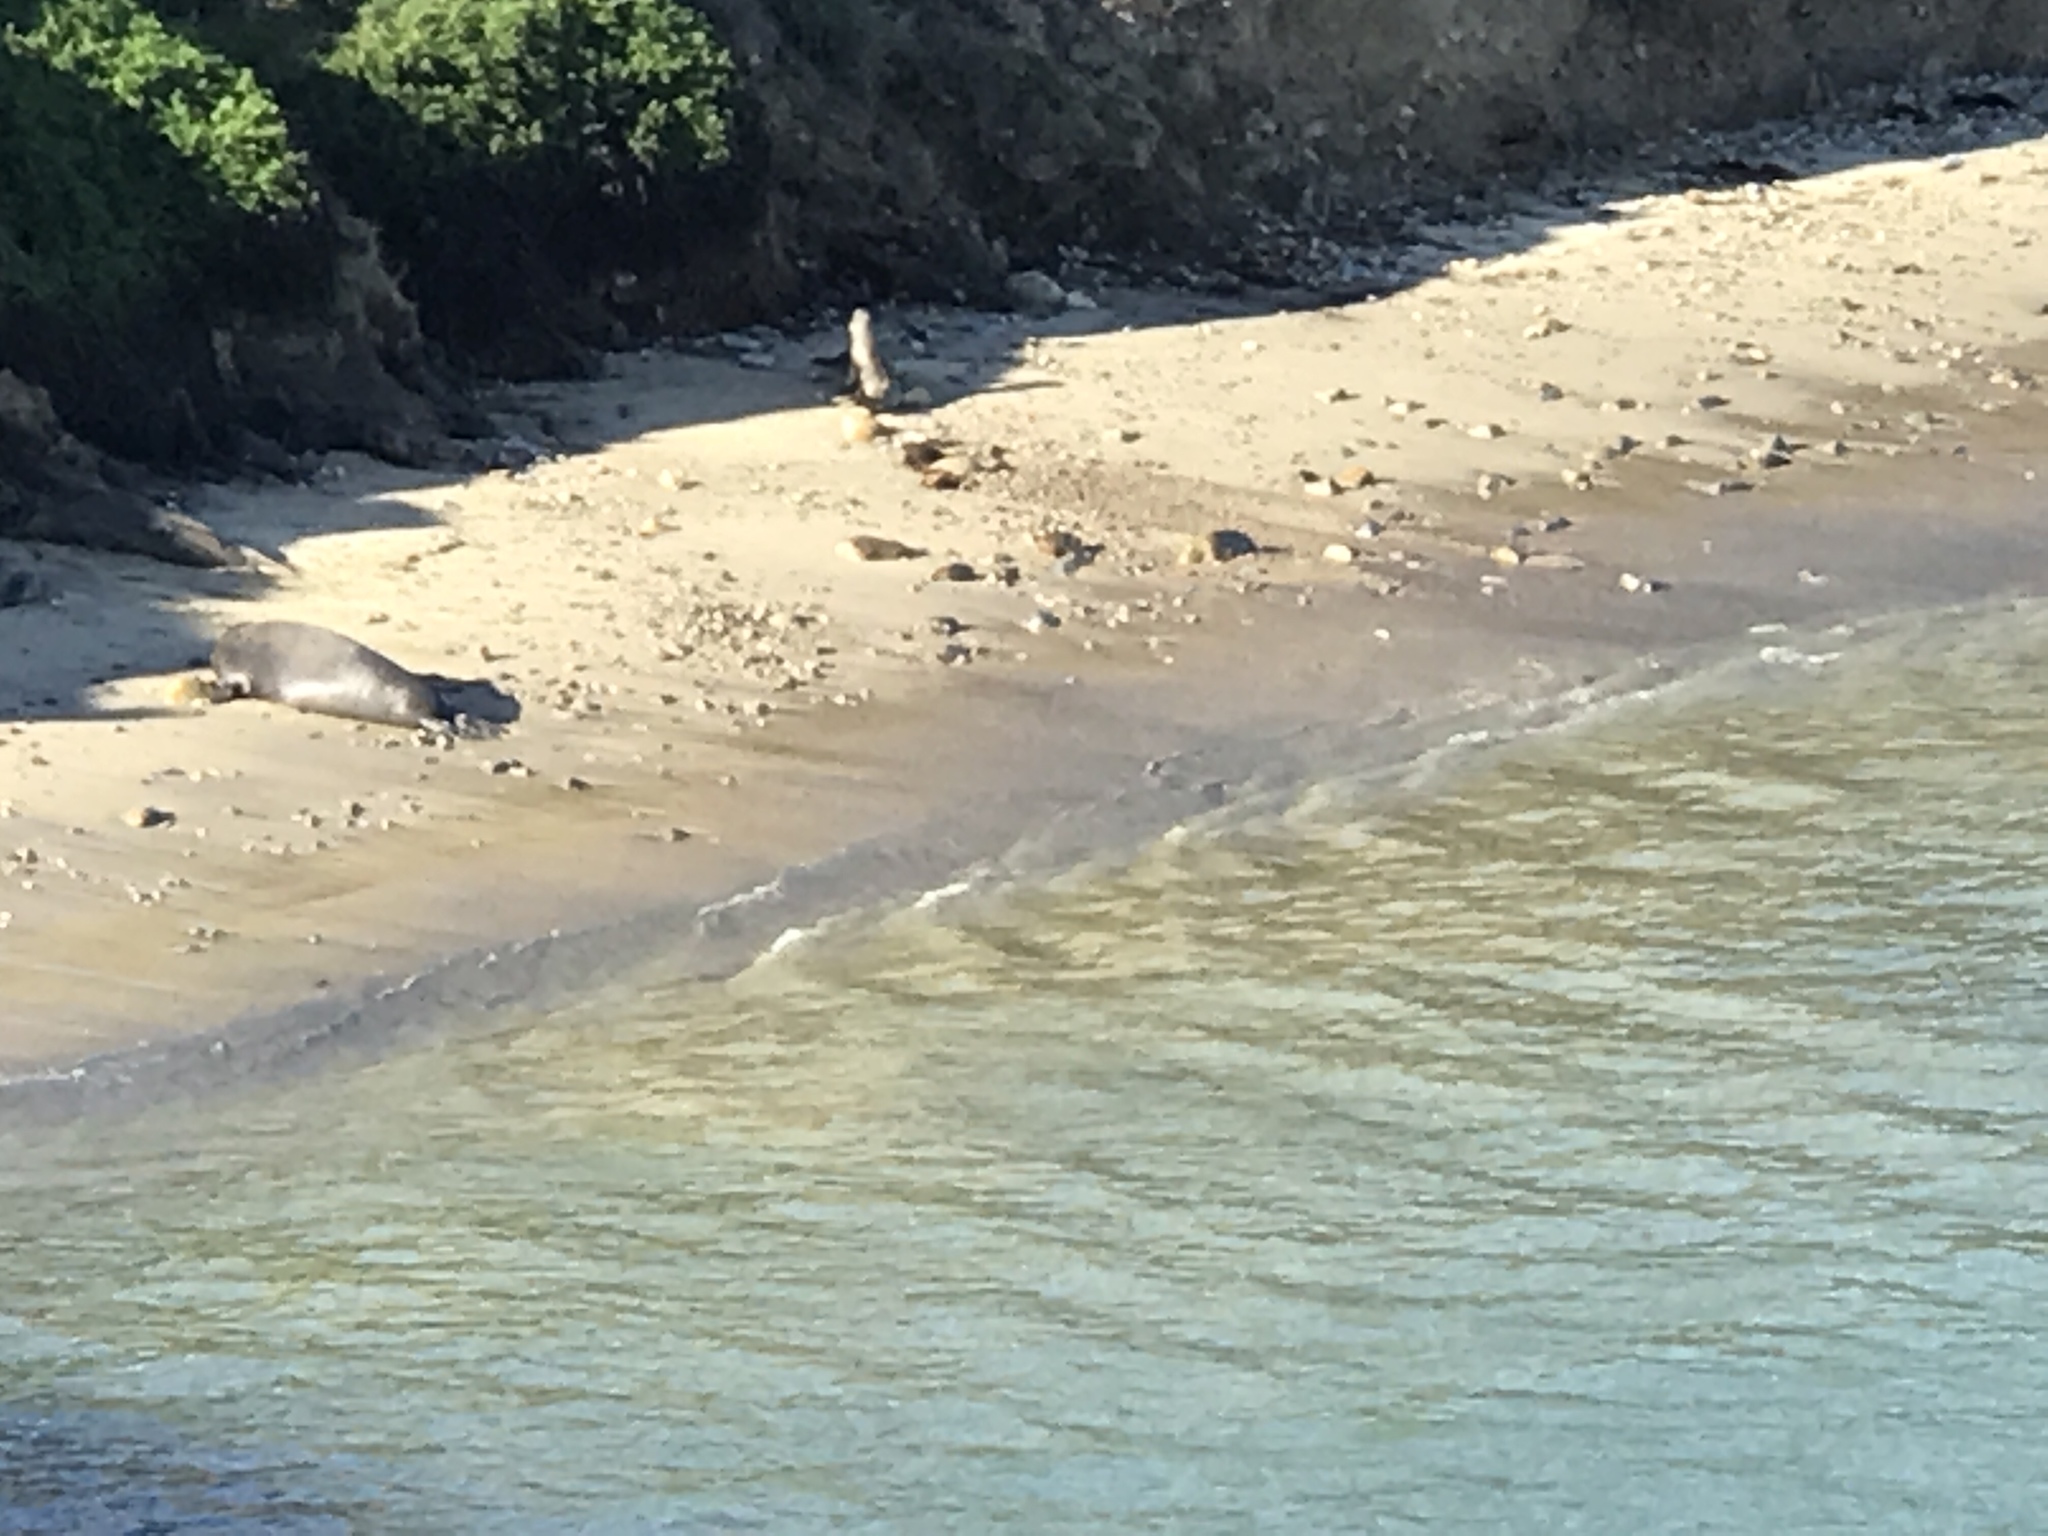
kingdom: Animalia
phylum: Chordata
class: Mammalia
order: Carnivora
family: Phocidae
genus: Mirounga
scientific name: Mirounga angustirostris
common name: Northern elephant seal
